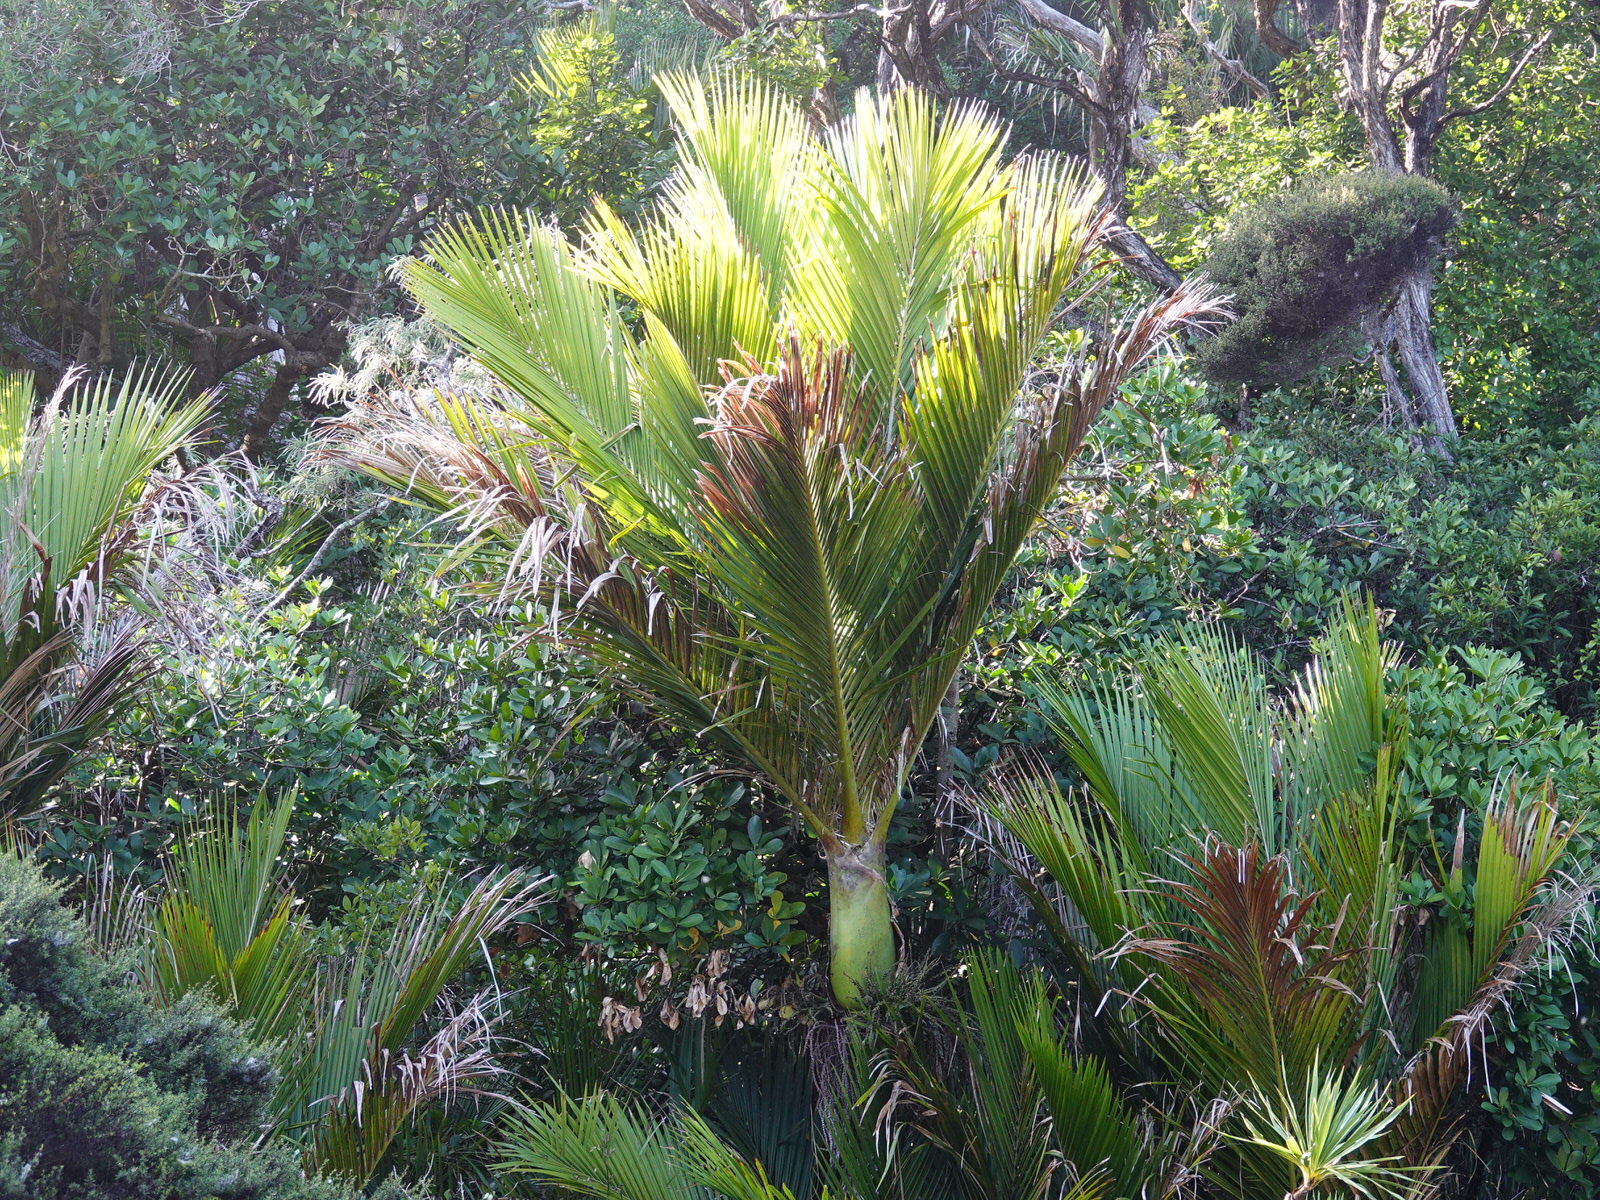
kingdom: Plantae
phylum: Tracheophyta
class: Liliopsida
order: Arecales
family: Arecaceae
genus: Rhopalostylis
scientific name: Rhopalostylis sapida
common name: Feather-duster palm
